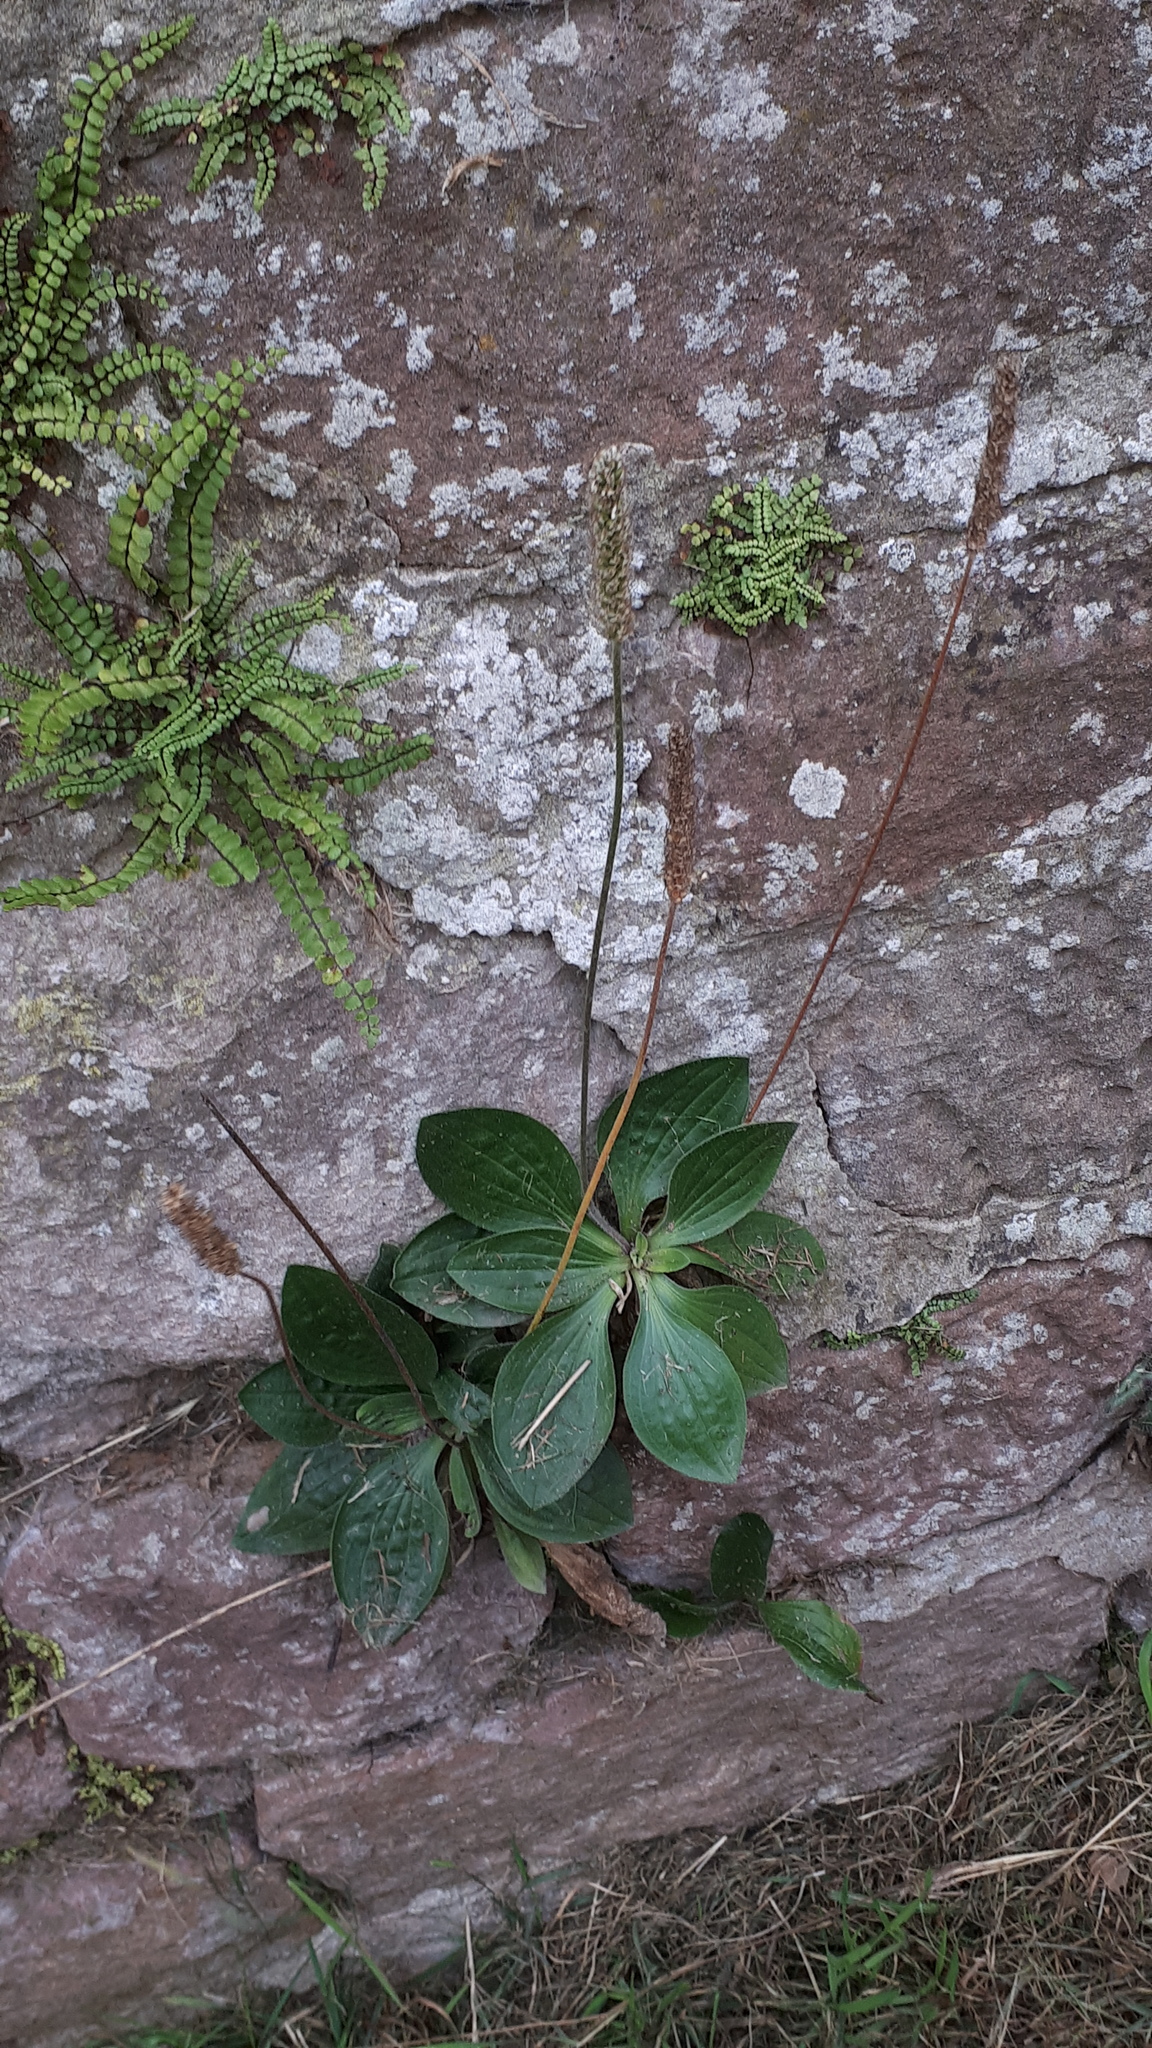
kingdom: Plantae
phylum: Tracheophyta
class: Magnoliopsida
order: Lamiales
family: Plantaginaceae
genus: Plantago
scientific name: Plantago media
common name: Hoary plantain
